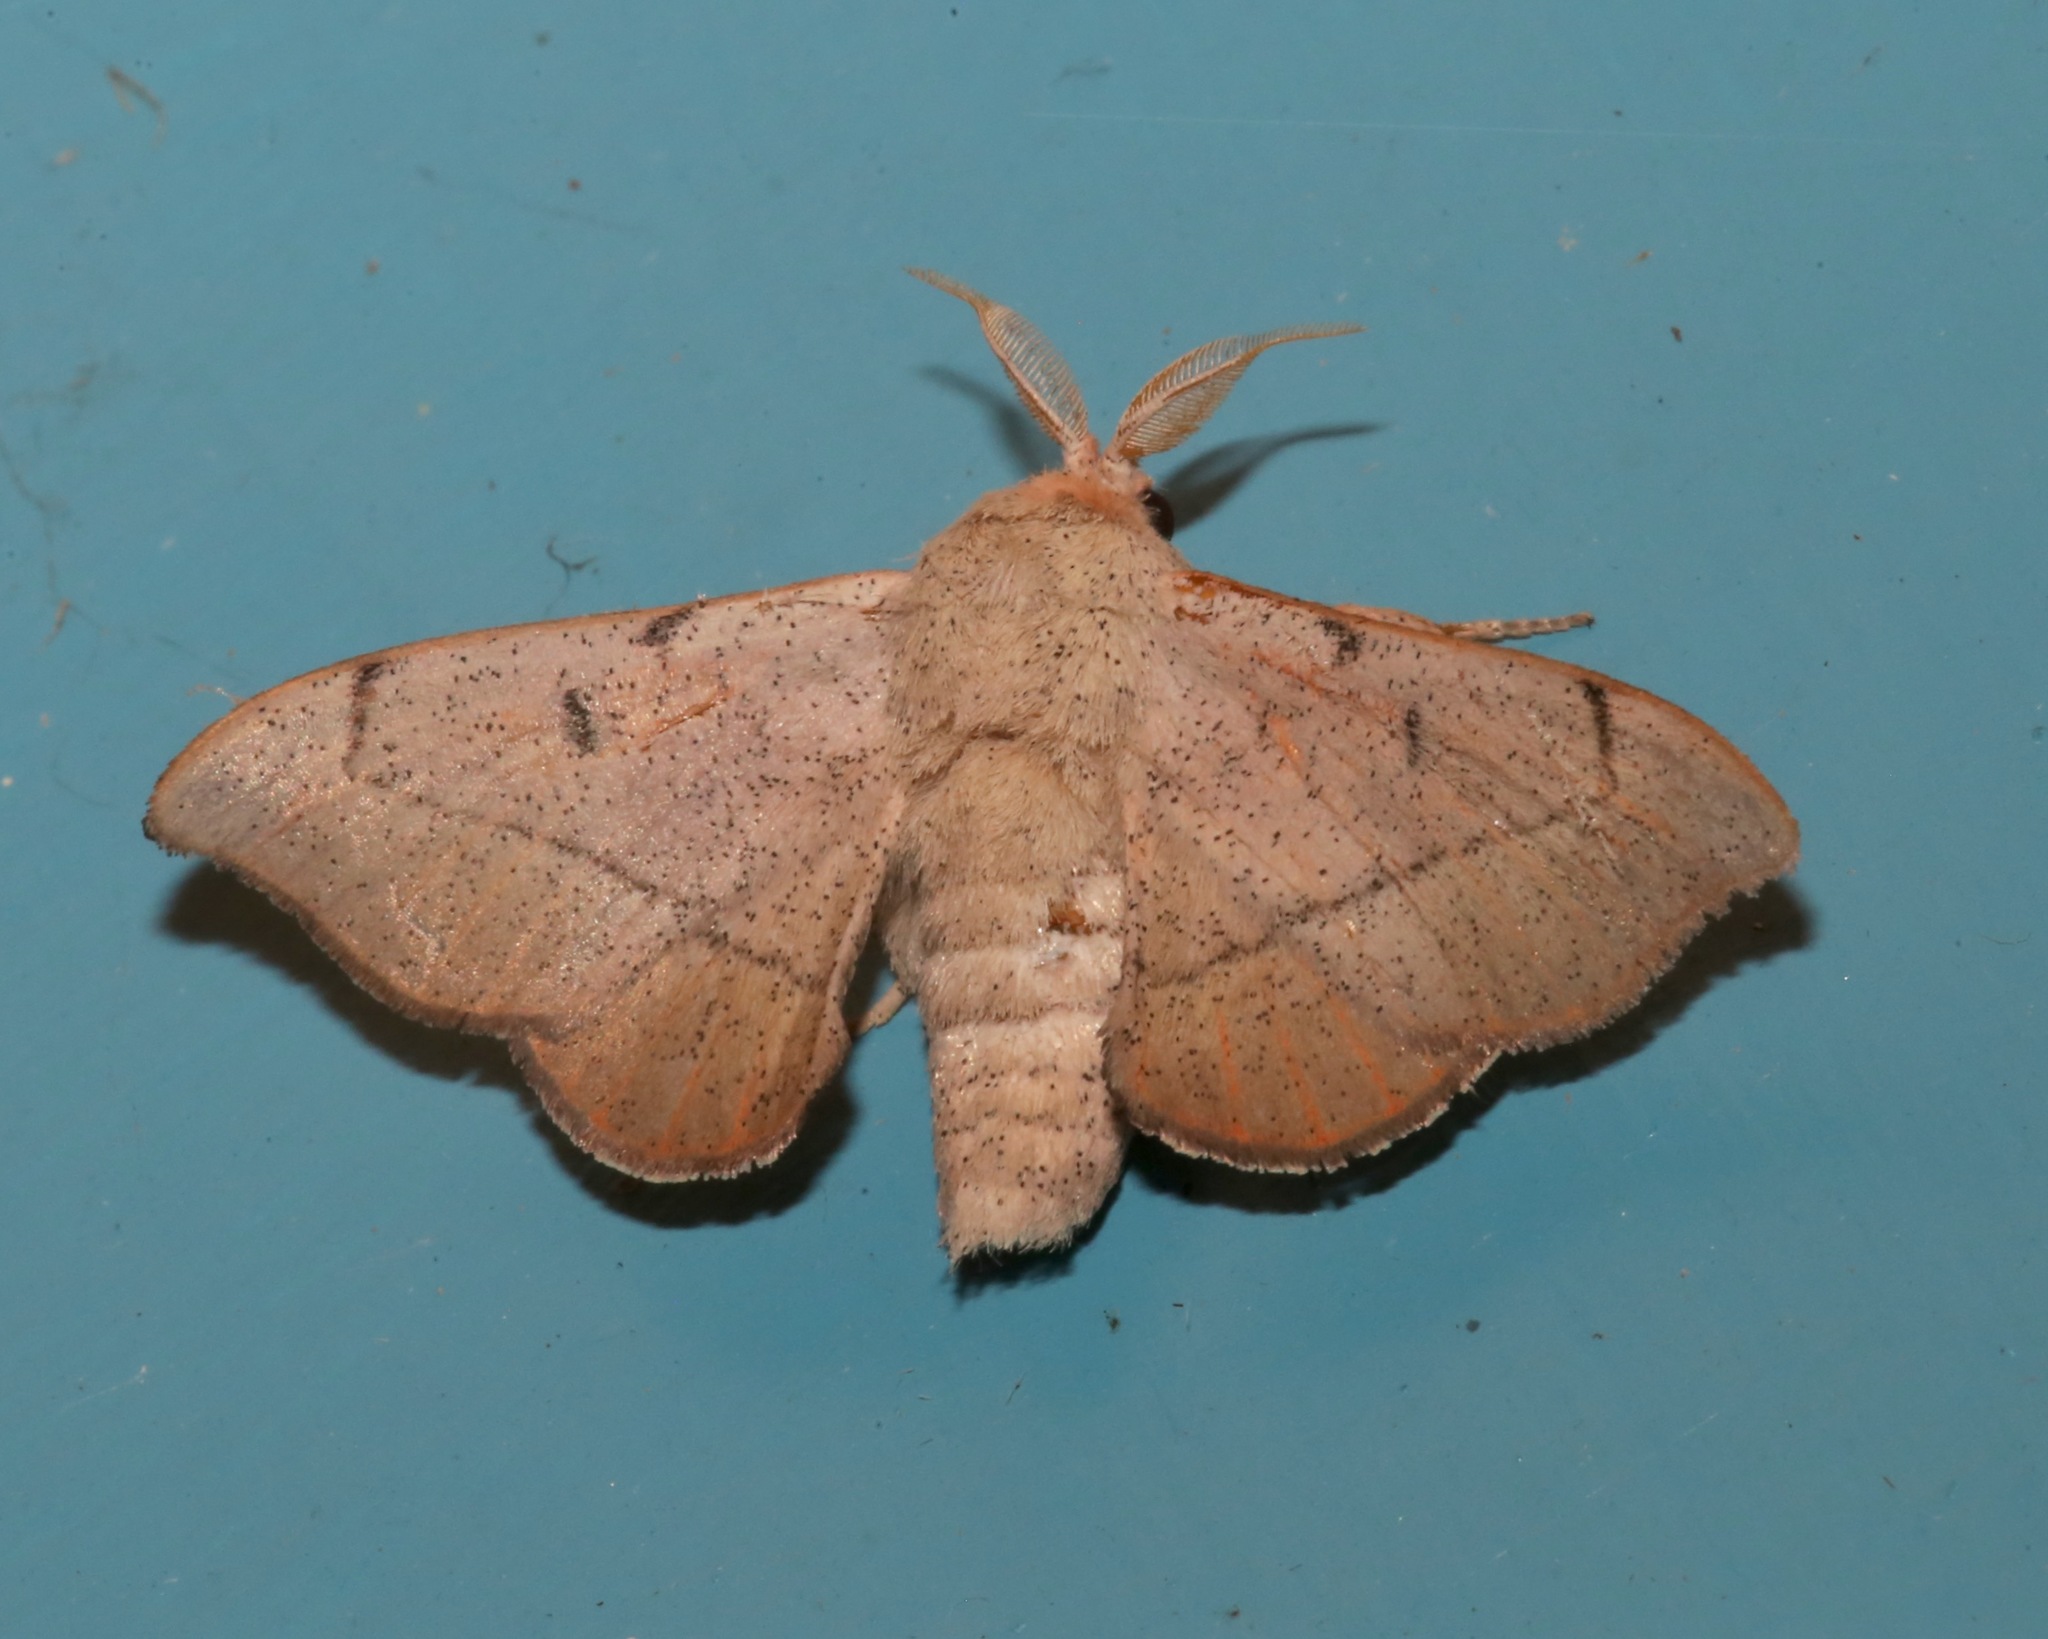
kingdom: Animalia
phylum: Arthropoda
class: Insecta
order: Lepidoptera
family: Mimallonidae
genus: Cicinnus
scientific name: Cicinnus melsheimeri
